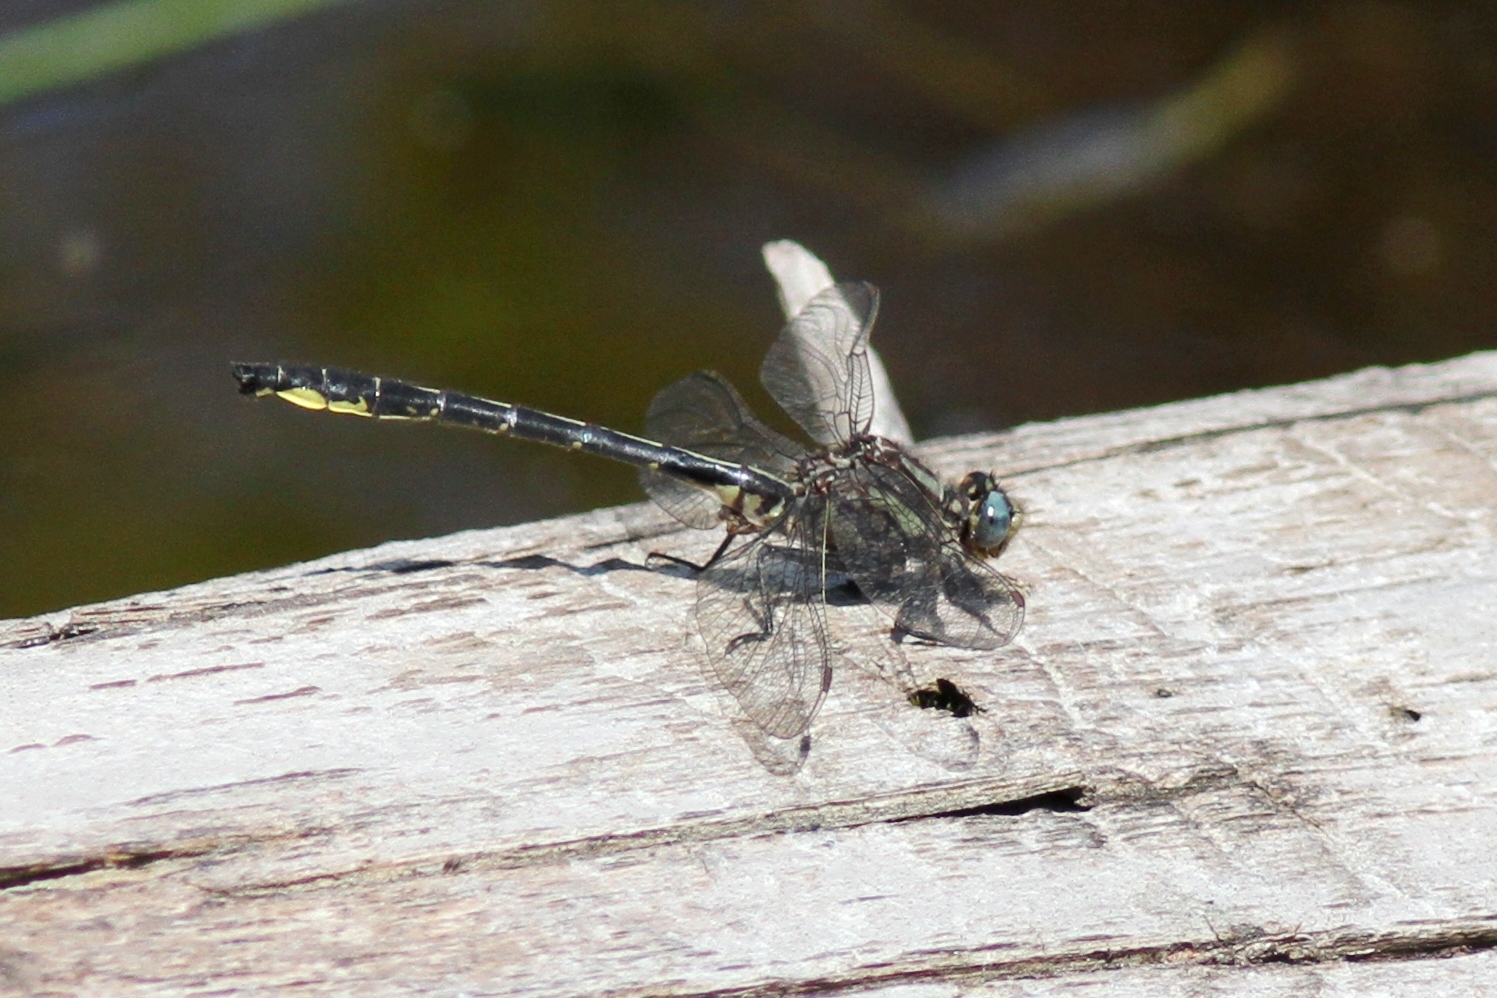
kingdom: Animalia
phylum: Arthropoda
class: Insecta
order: Odonata
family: Gomphidae
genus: Phanogomphus
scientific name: Phanogomphus borealis
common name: Beaverpond clubtail
